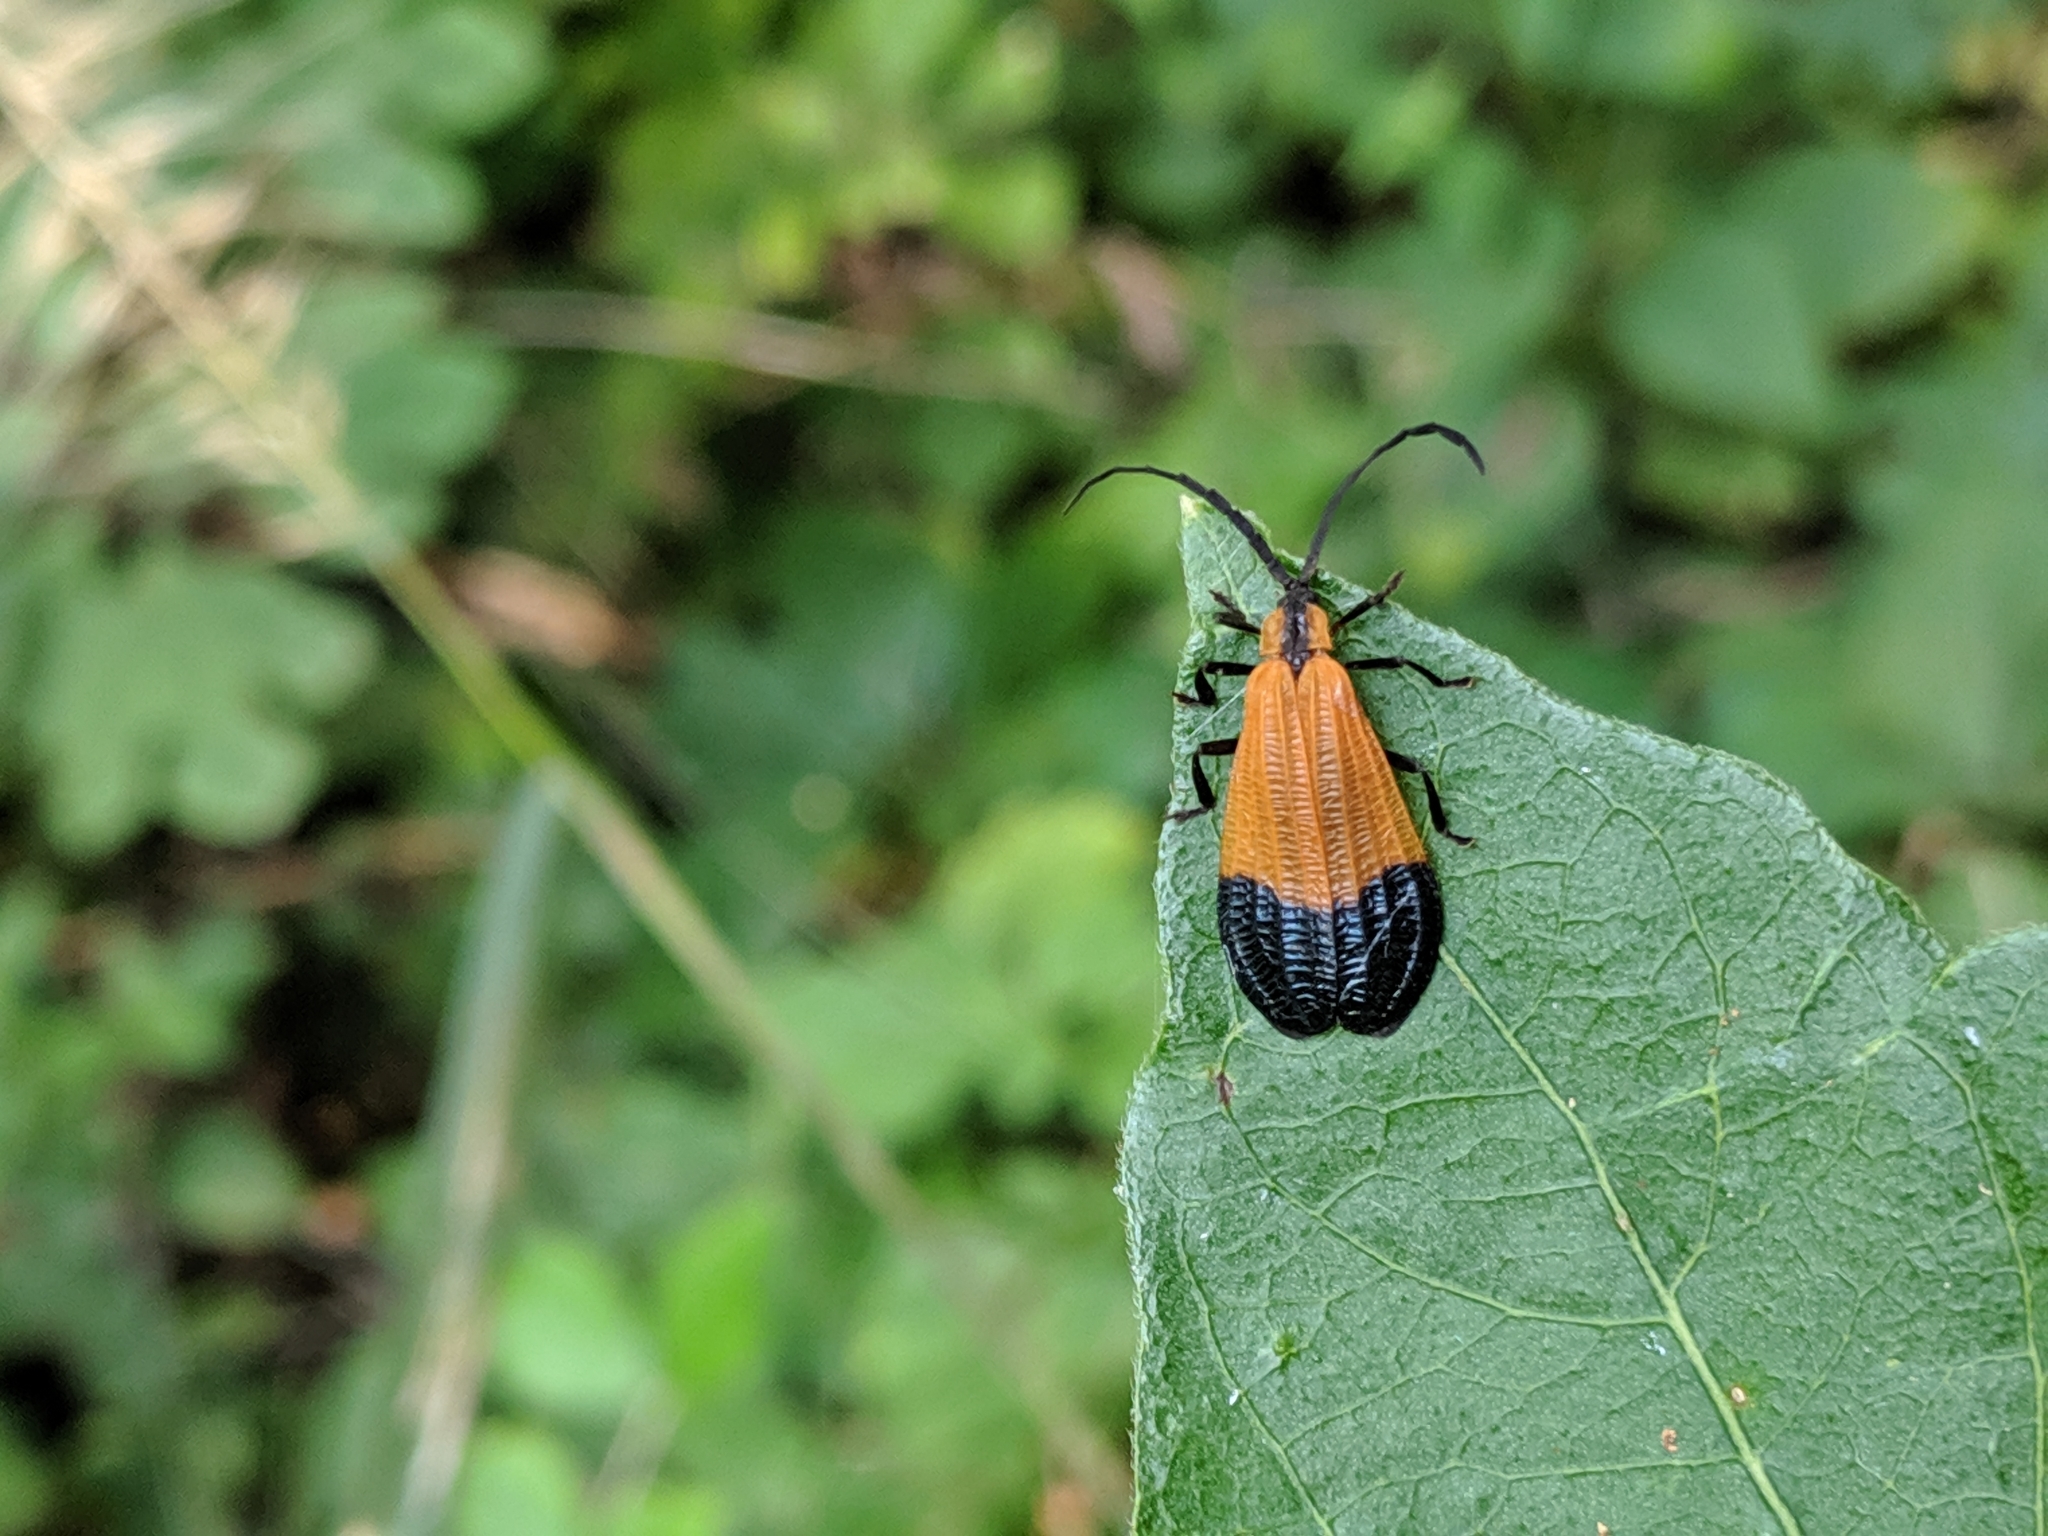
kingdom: Animalia
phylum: Arthropoda
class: Insecta
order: Coleoptera
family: Lycidae
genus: Calopteron
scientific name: Calopteron terminale
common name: End band net-winged beetle
